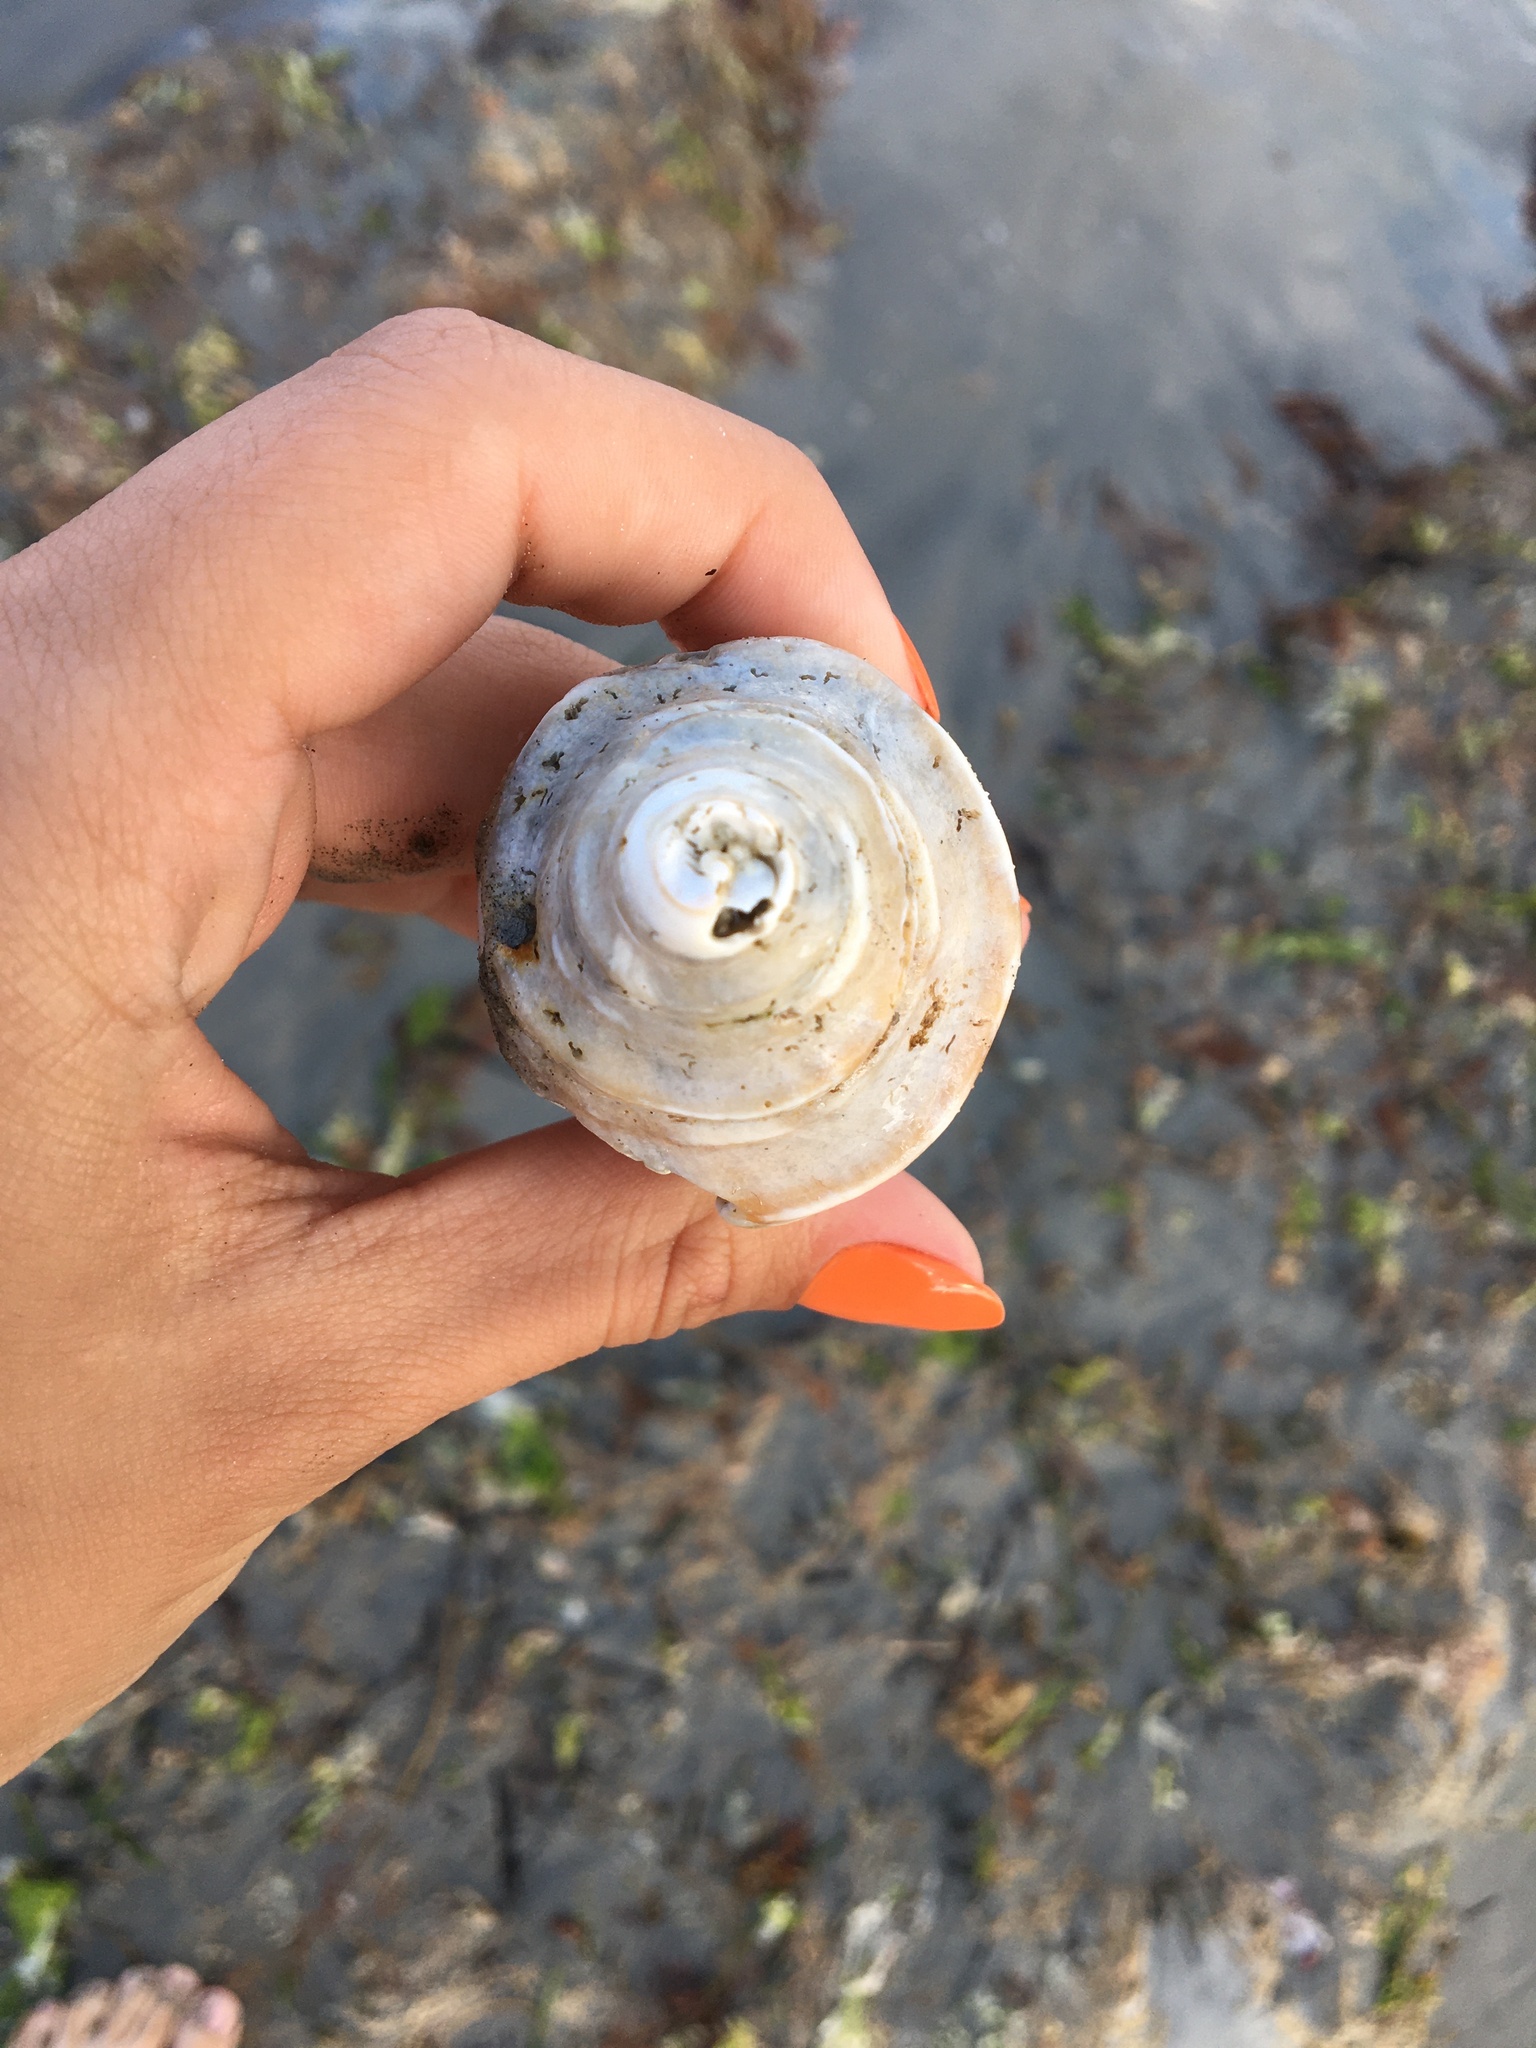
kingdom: Animalia
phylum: Mollusca
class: Gastropoda
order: Neogastropoda
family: Buccinidae
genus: Neptunea
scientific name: Neptunea decemcostata
